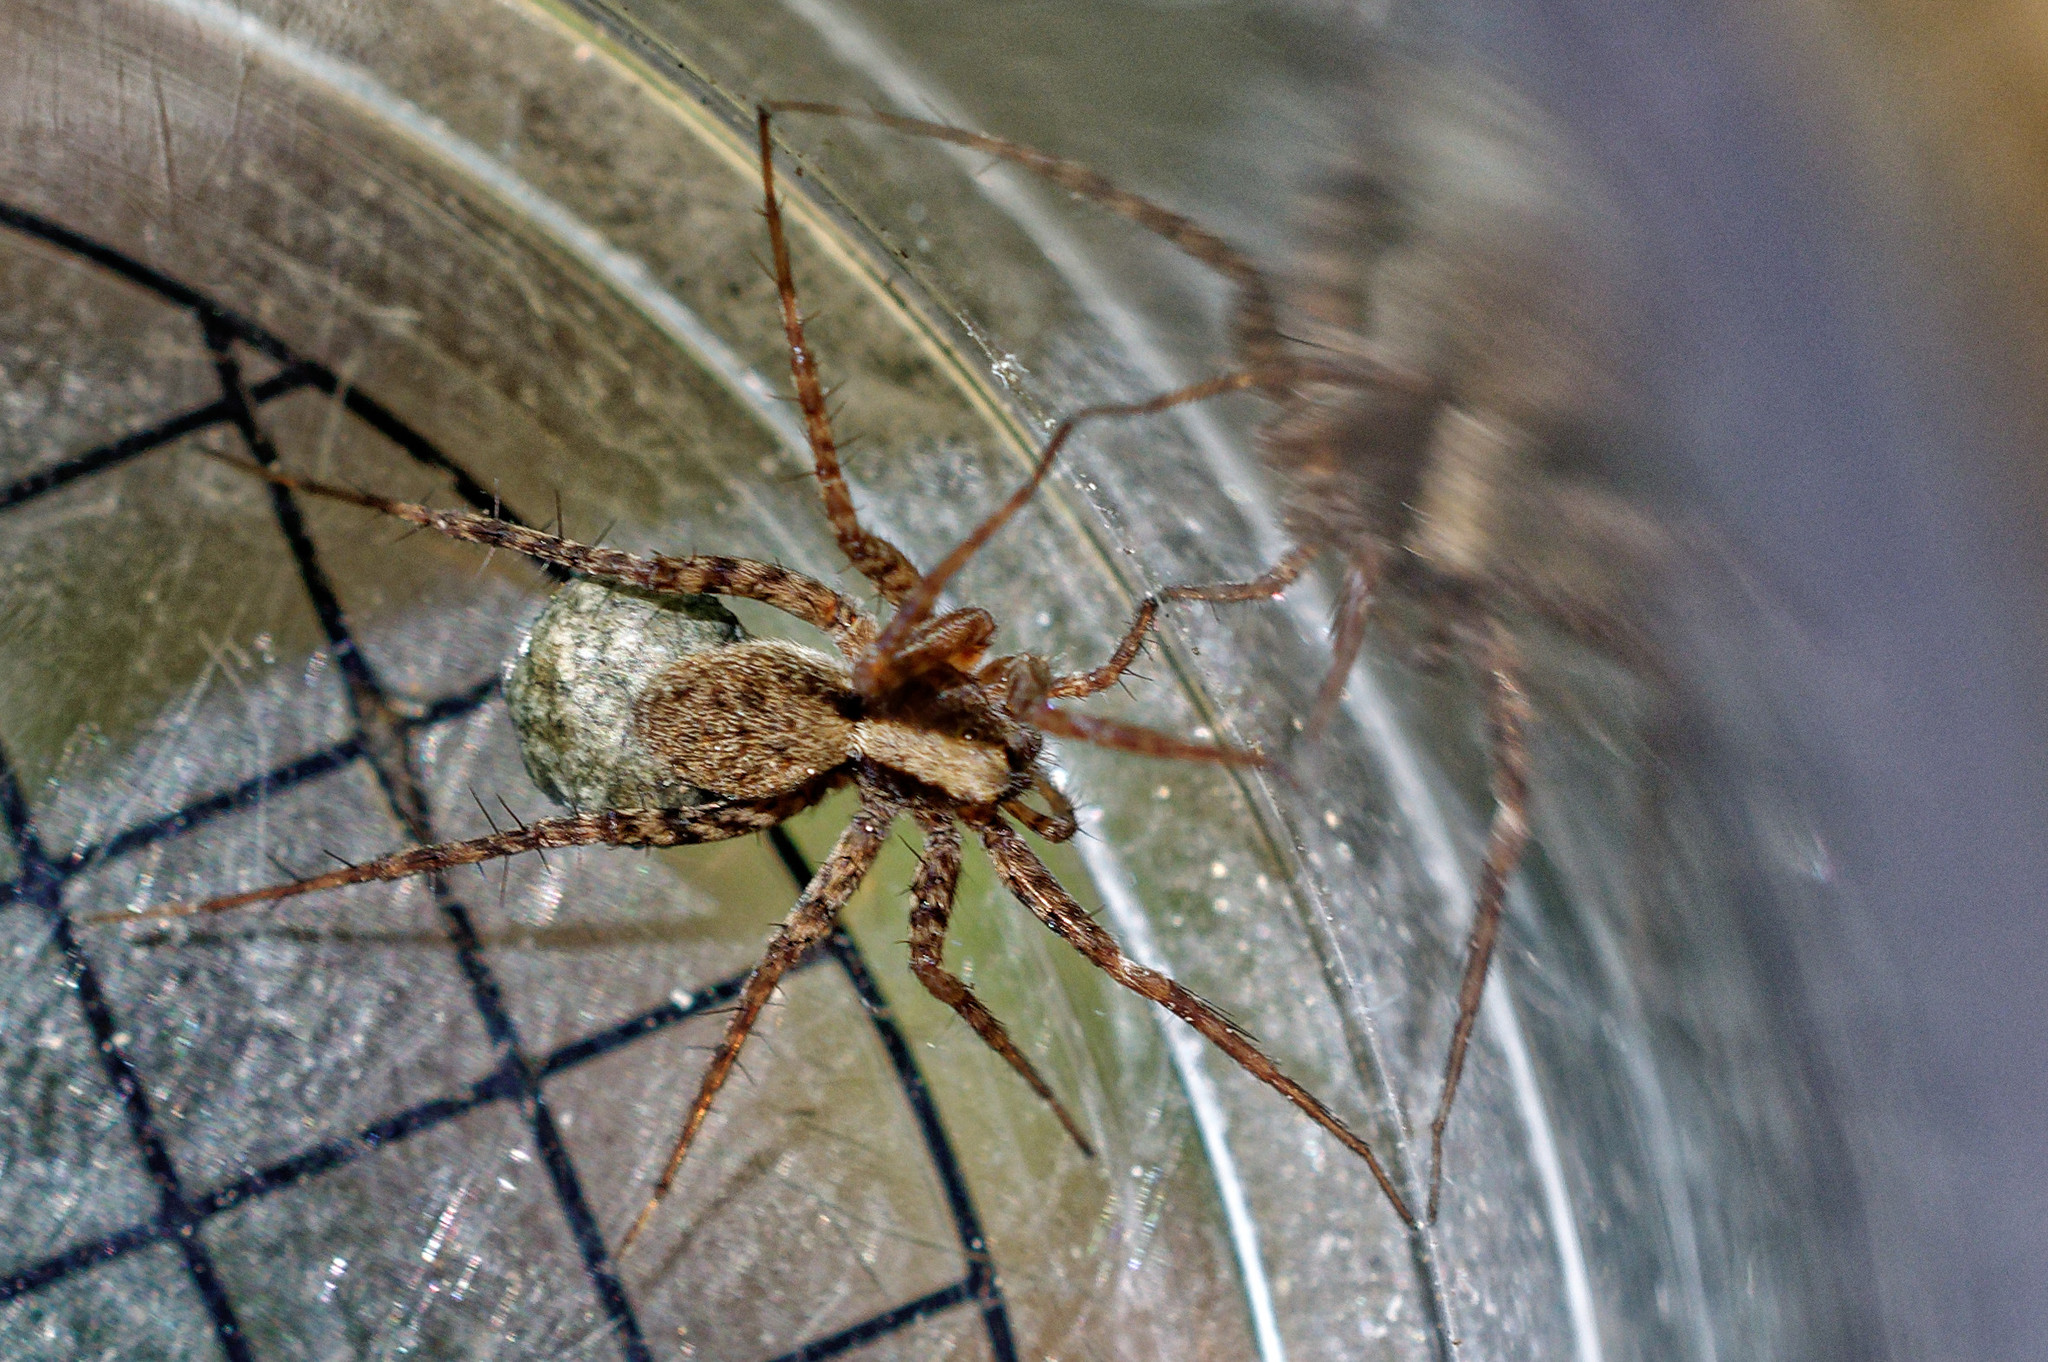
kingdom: Animalia
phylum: Arthropoda
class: Arachnida
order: Araneae
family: Lycosidae
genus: Pardosa
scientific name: Pardosa
